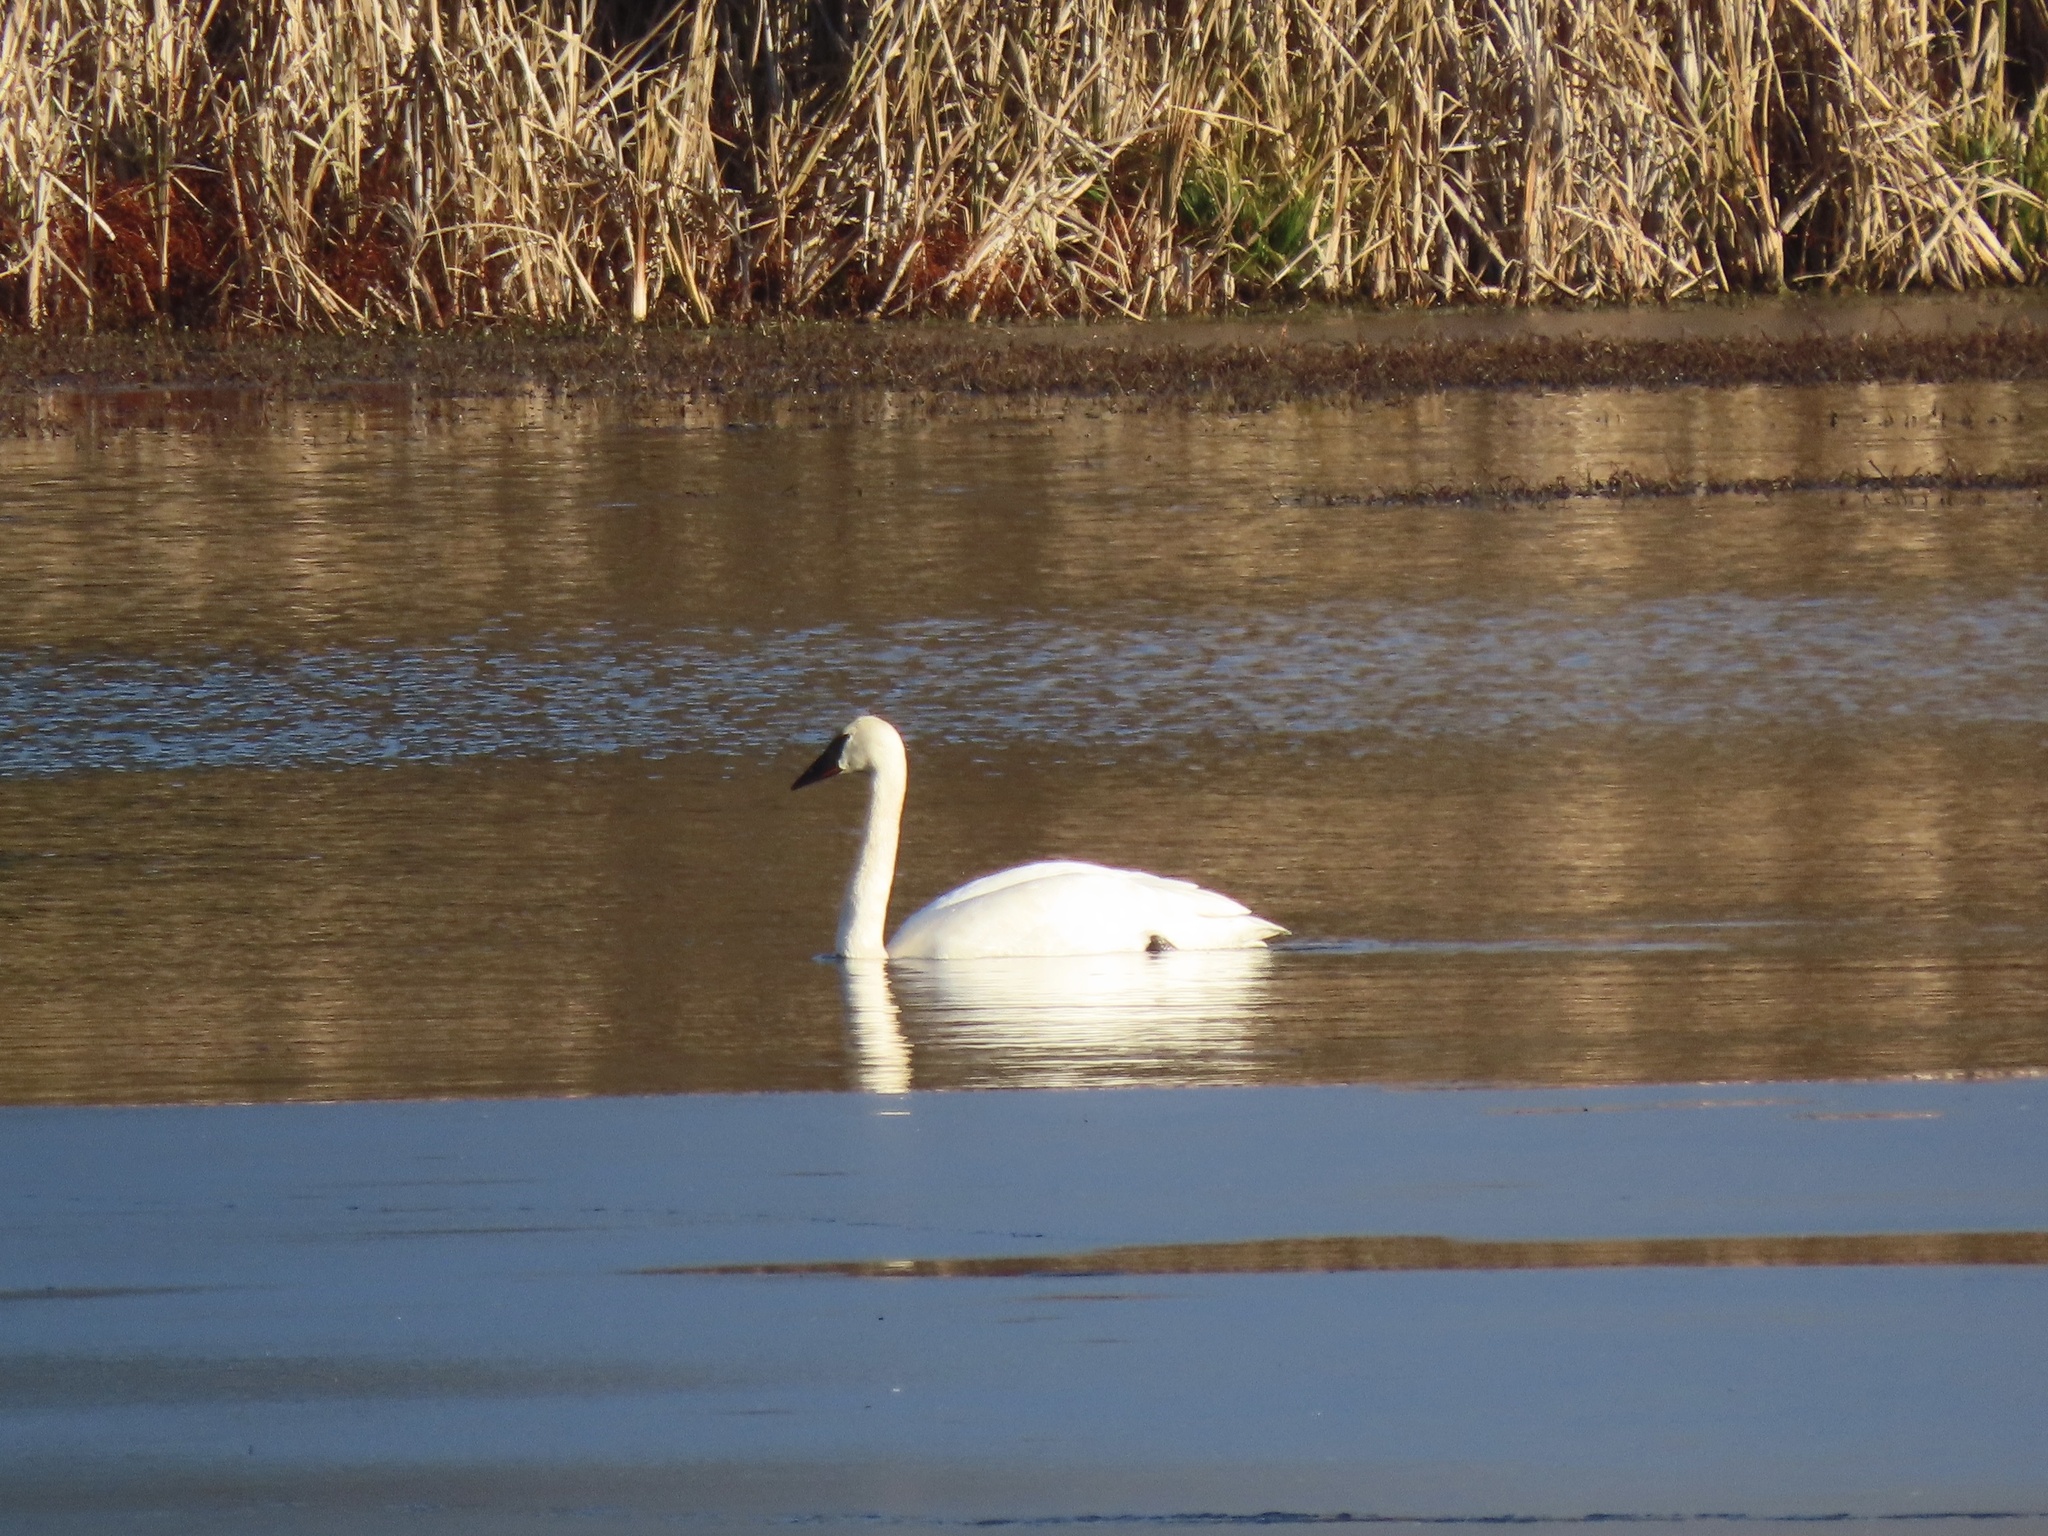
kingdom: Animalia
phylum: Chordata
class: Aves
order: Anseriformes
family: Anatidae
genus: Cygnus
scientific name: Cygnus buccinator
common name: Trumpeter swan
